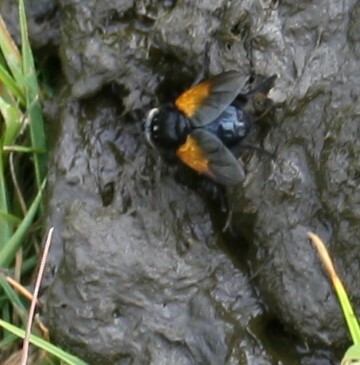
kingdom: Animalia
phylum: Arthropoda
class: Insecta
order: Diptera
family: Muscidae
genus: Mesembrina
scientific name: Mesembrina meridiana
